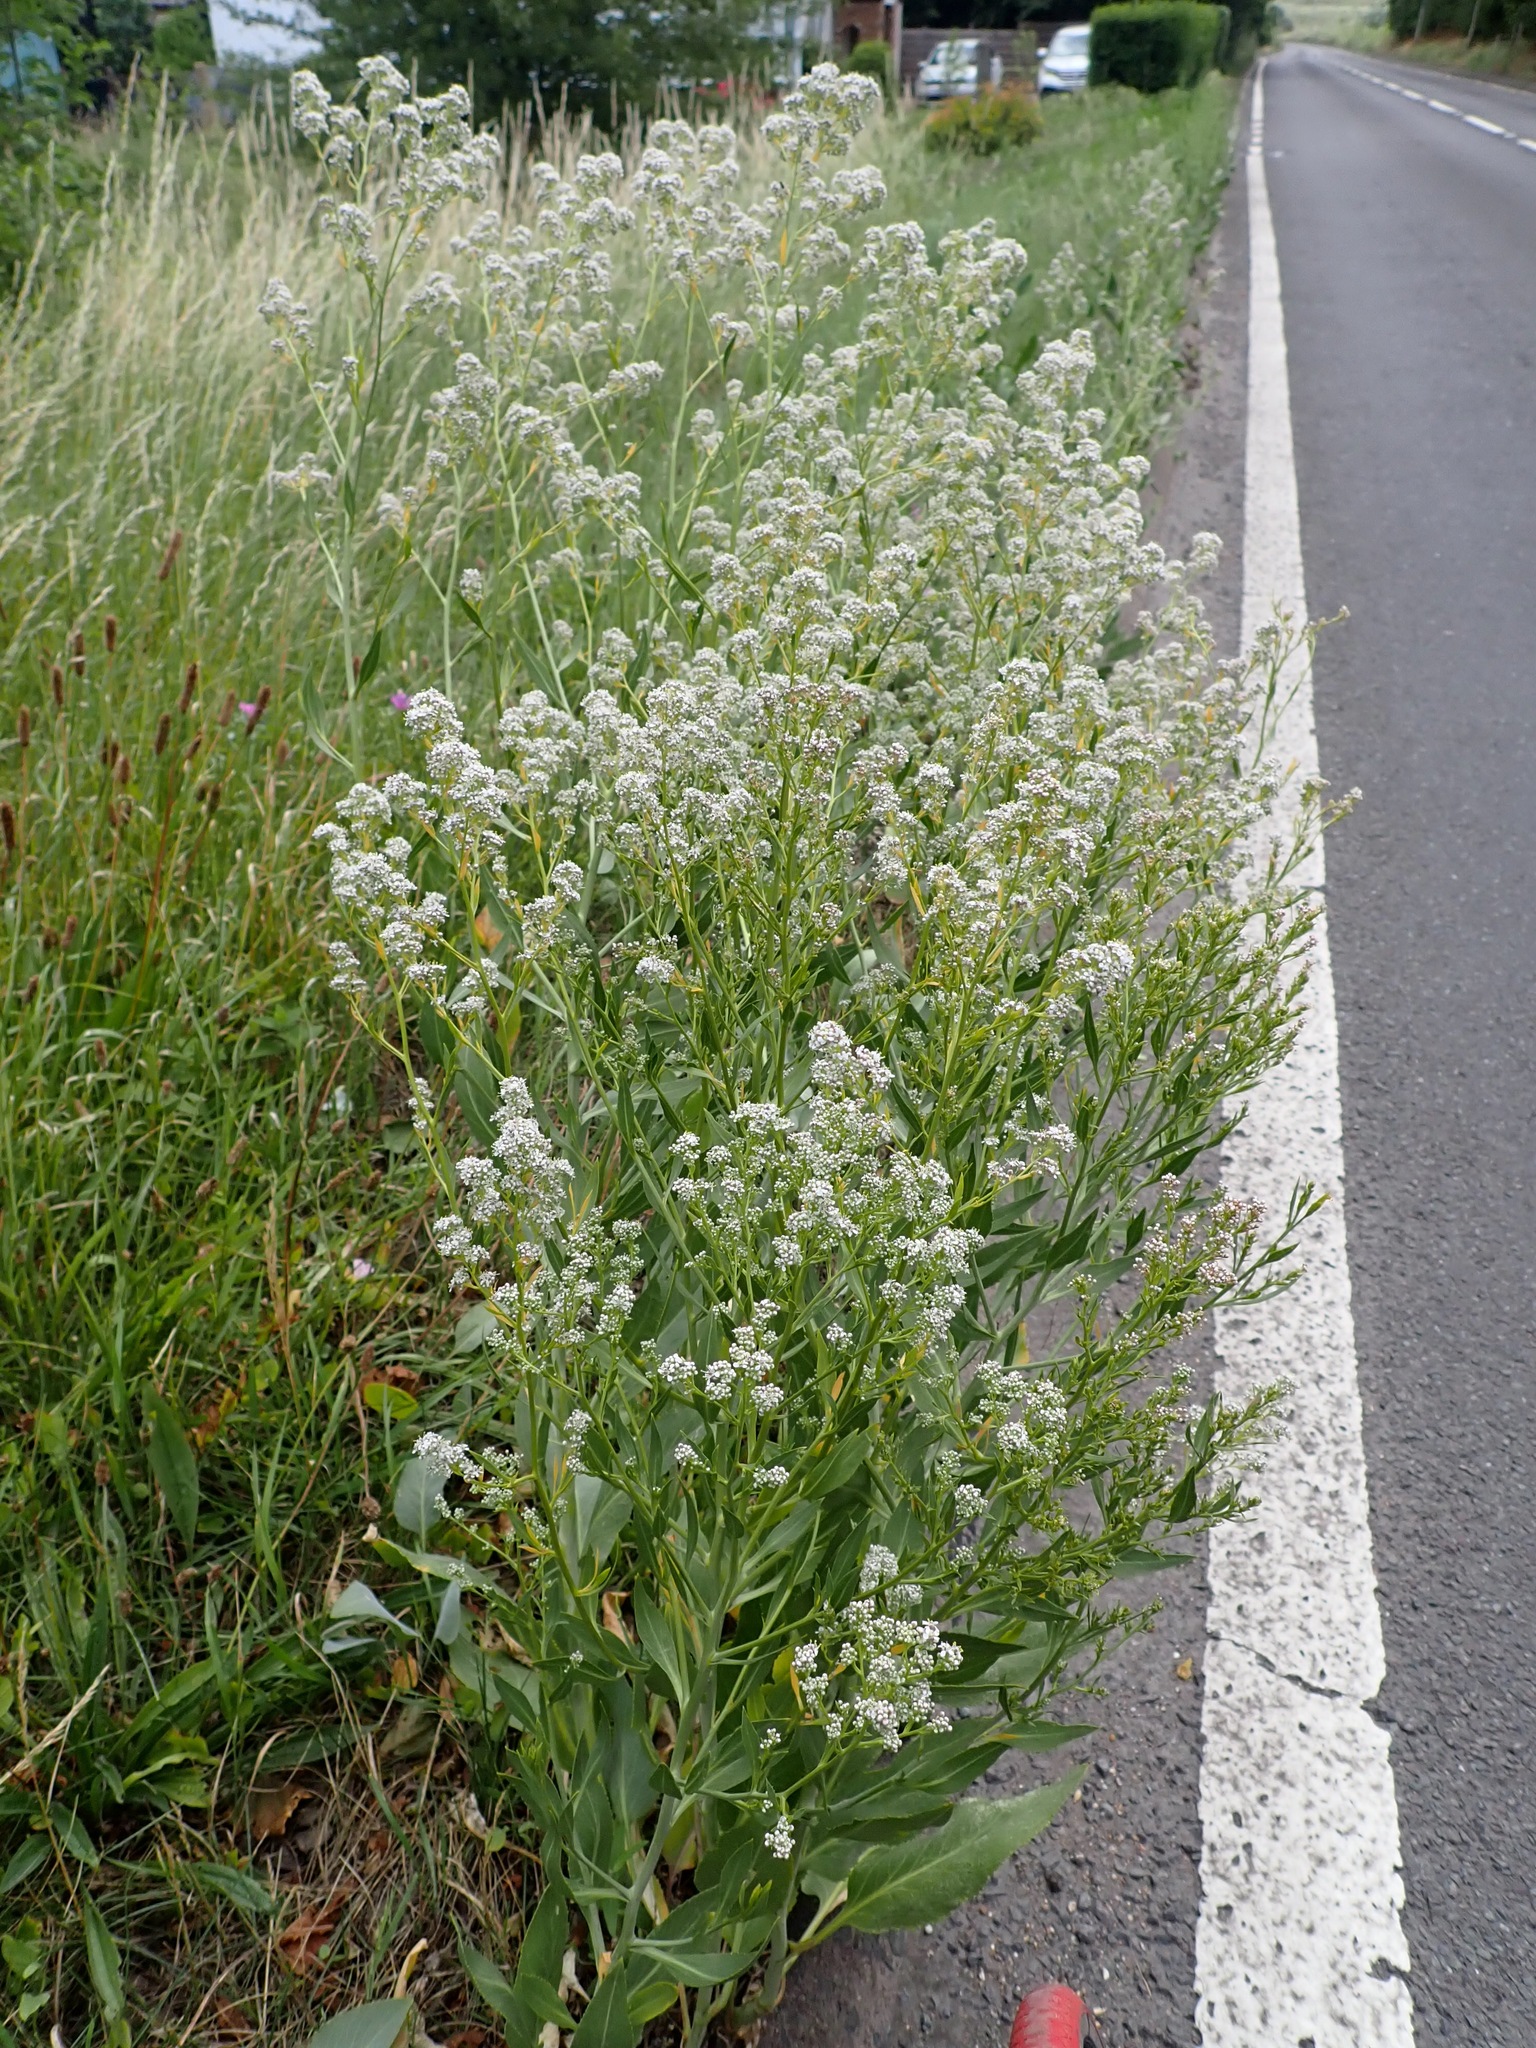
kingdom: Plantae
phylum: Tracheophyta
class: Magnoliopsida
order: Brassicales
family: Brassicaceae
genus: Lepidium
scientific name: Lepidium latifolium
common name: Dittander
